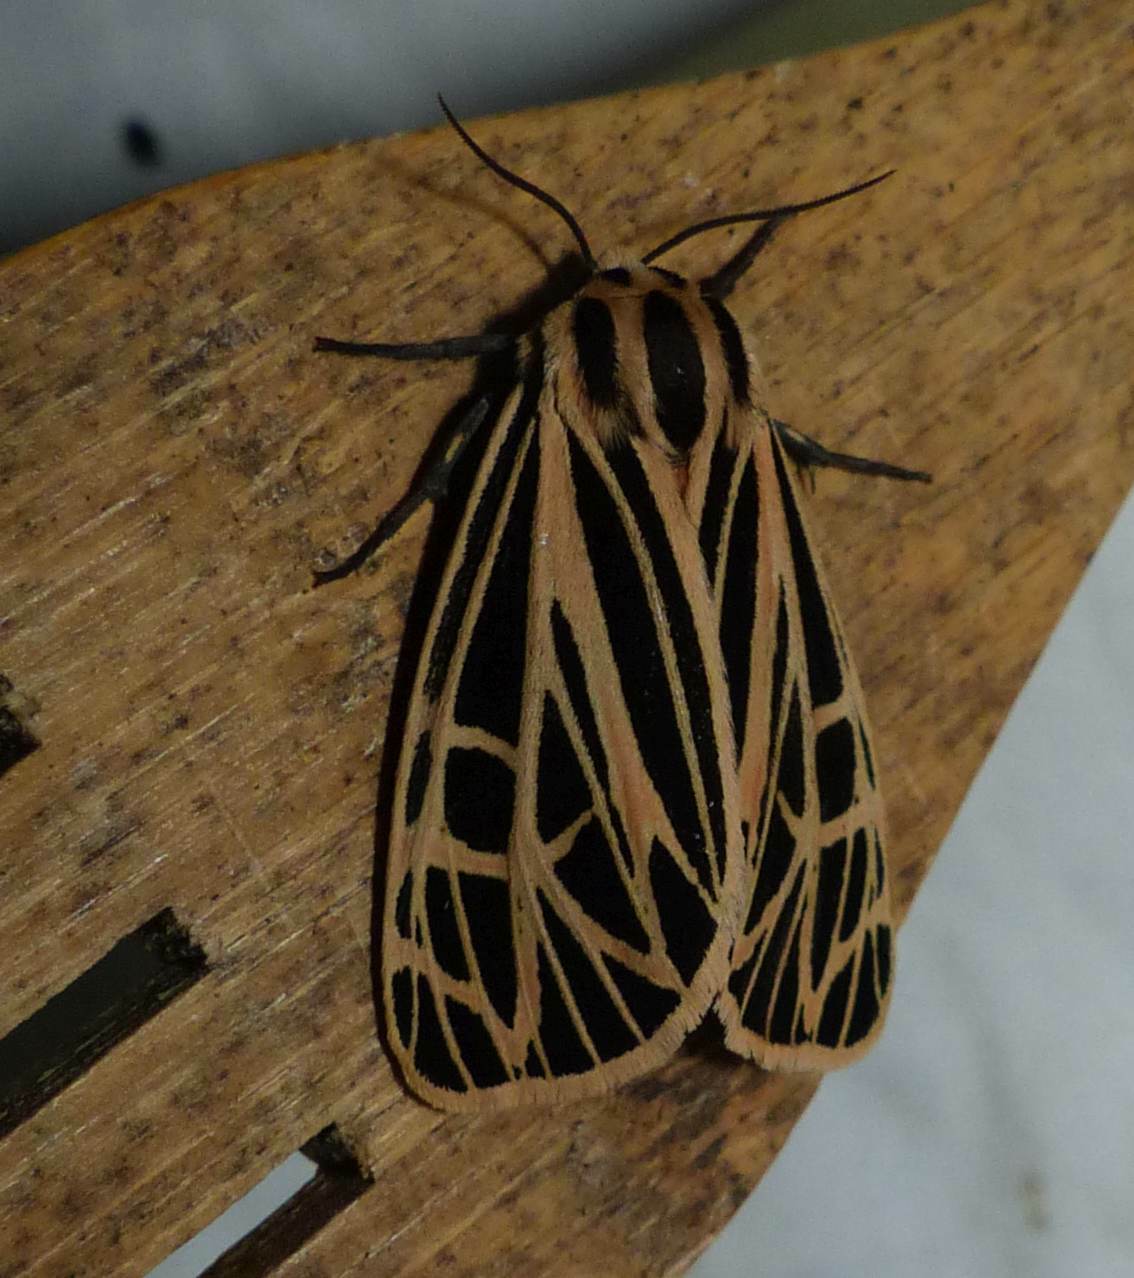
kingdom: Animalia
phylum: Arthropoda
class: Insecta
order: Lepidoptera
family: Erebidae
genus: Grammia
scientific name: Grammia virgo
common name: Virgin tiger moth
